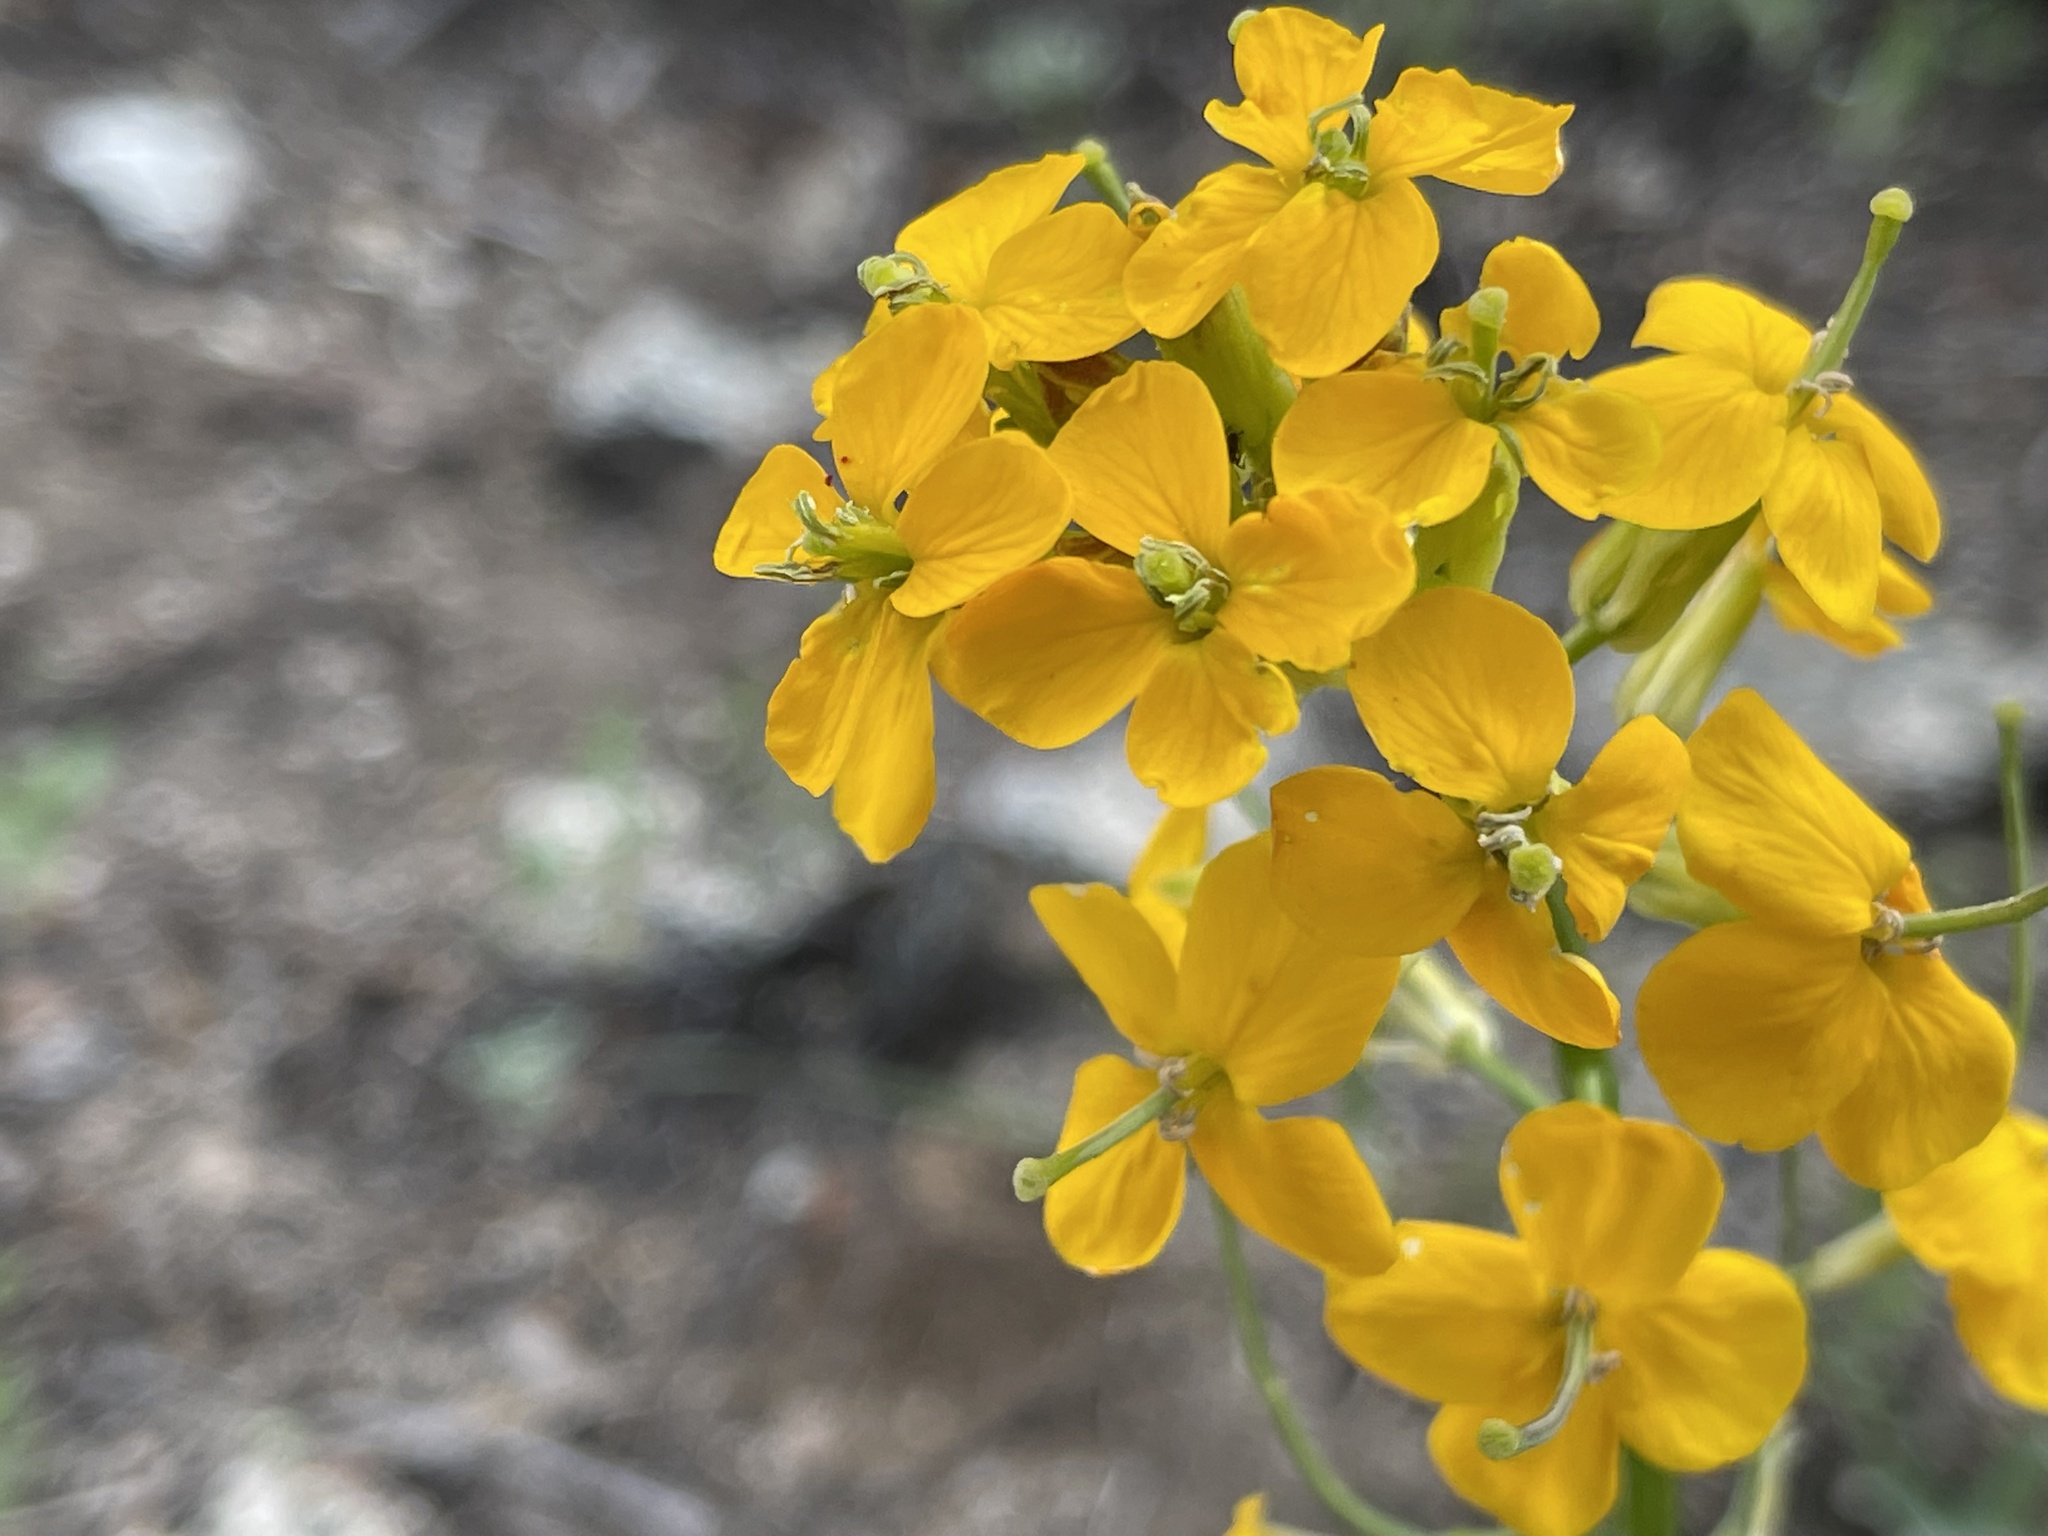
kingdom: Plantae
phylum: Tracheophyta
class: Magnoliopsida
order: Brassicales
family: Brassicaceae
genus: Erysimum
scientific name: Erysimum capitatum
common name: Western wallflower
